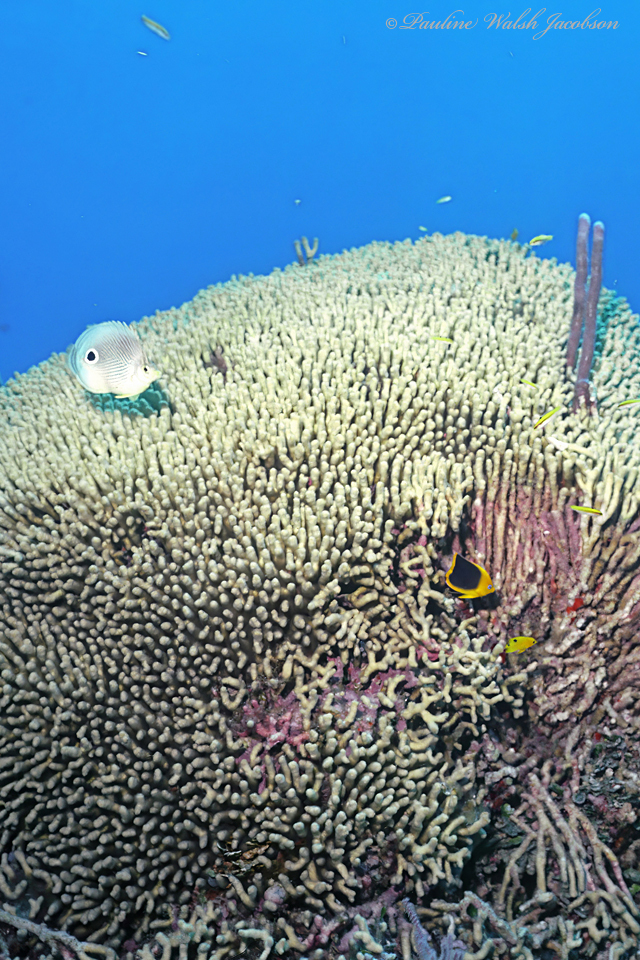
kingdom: Animalia
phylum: Chordata
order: Perciformes
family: Pomacanthidae
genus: Holacanthus
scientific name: Holacanthus tricolor
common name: Rock beauty
